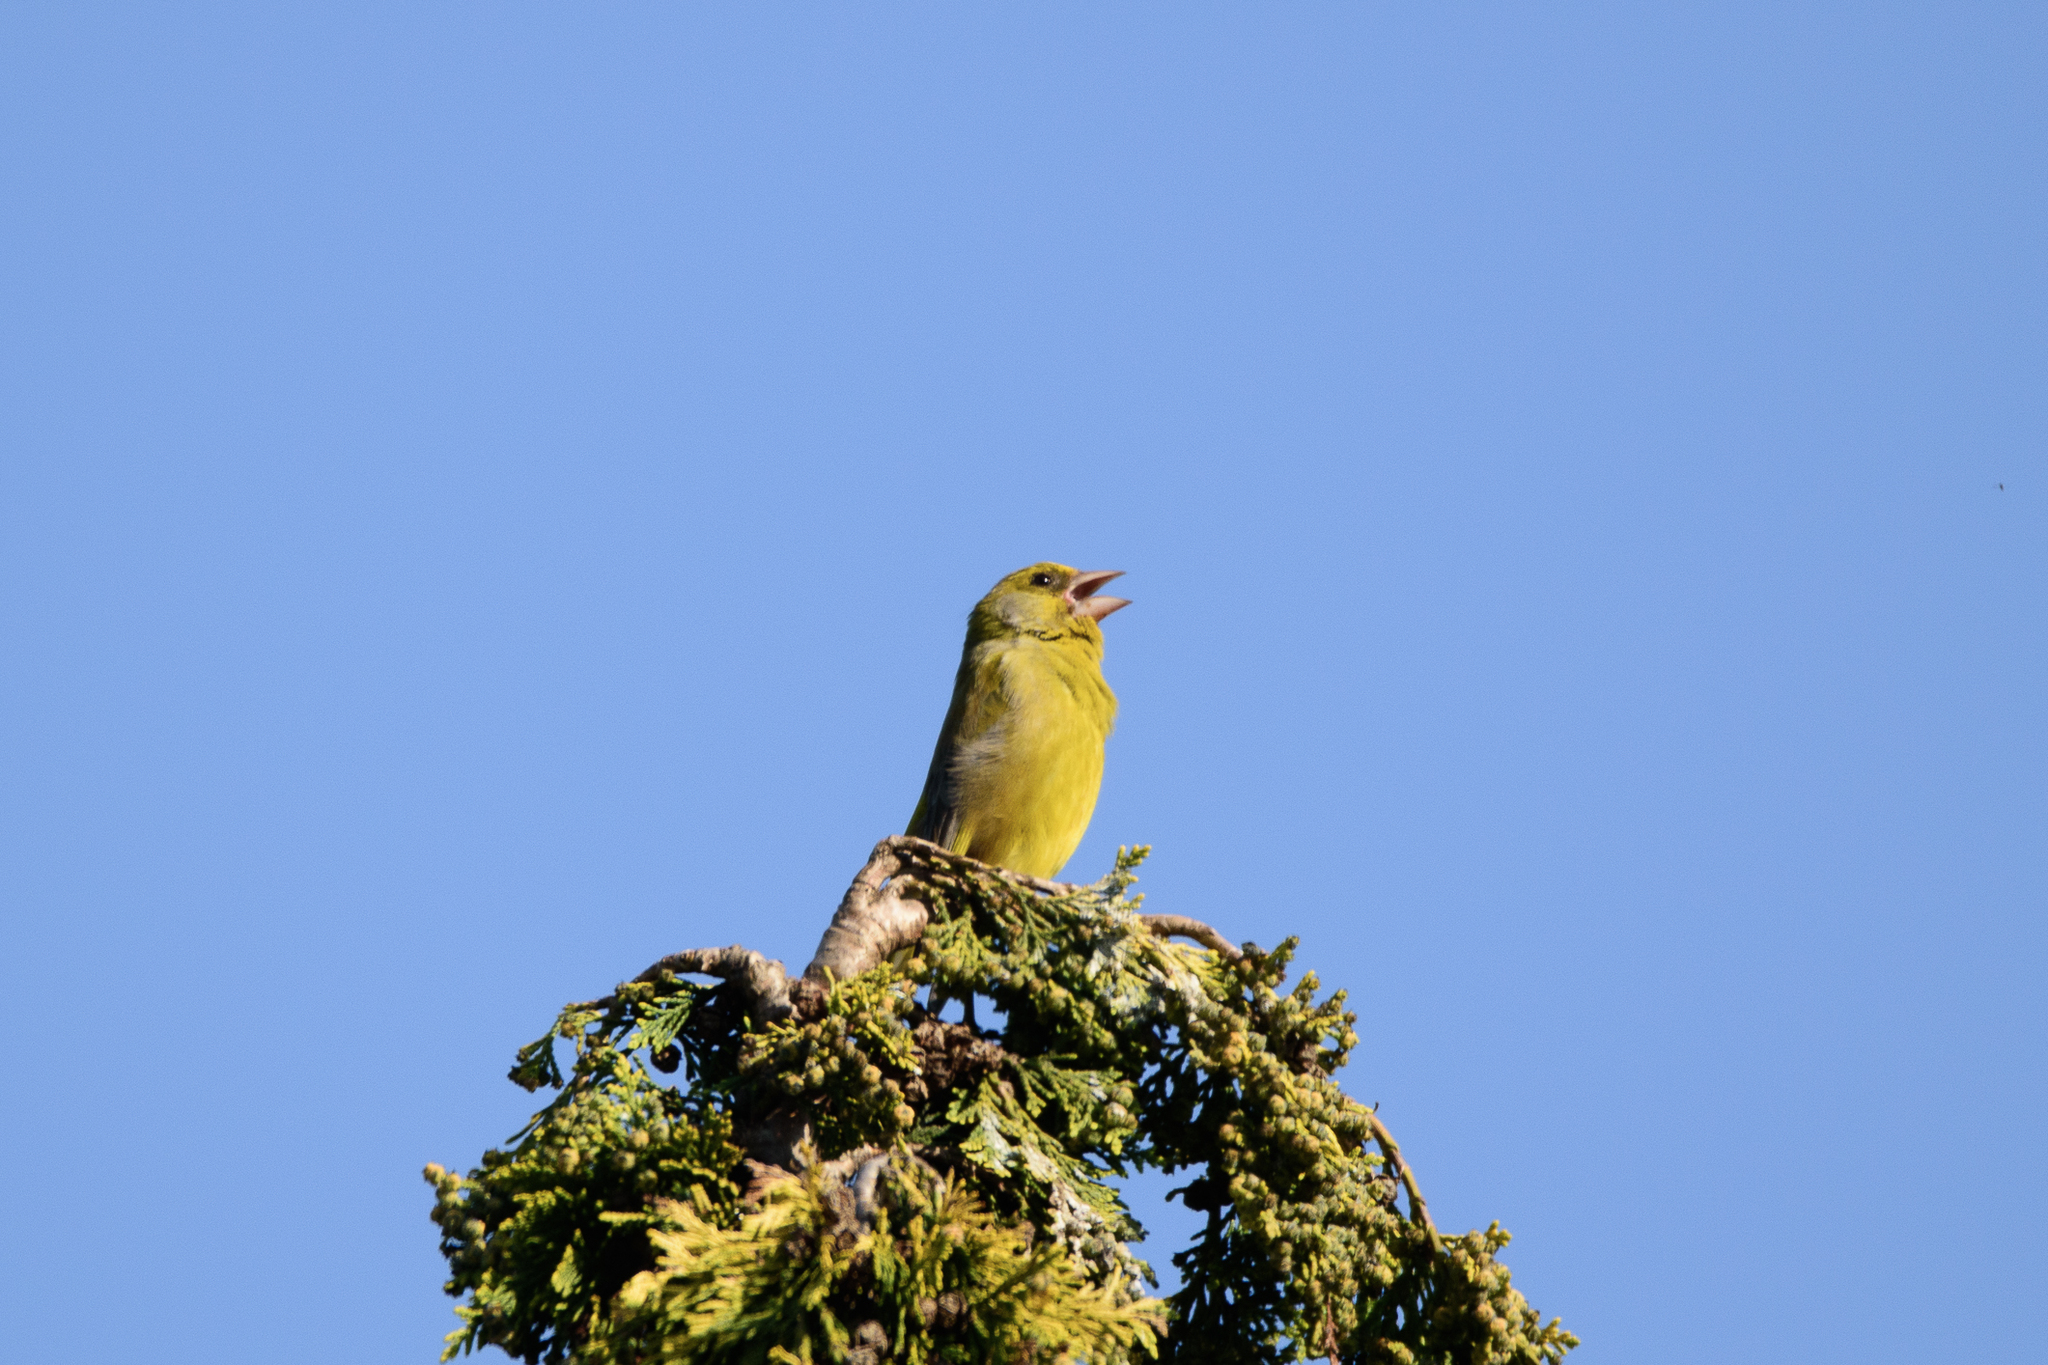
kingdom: Plantae
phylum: Tracheophyta
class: Liliopsida
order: Poales
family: Poaceae
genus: Chloris
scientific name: Chloris chloris
